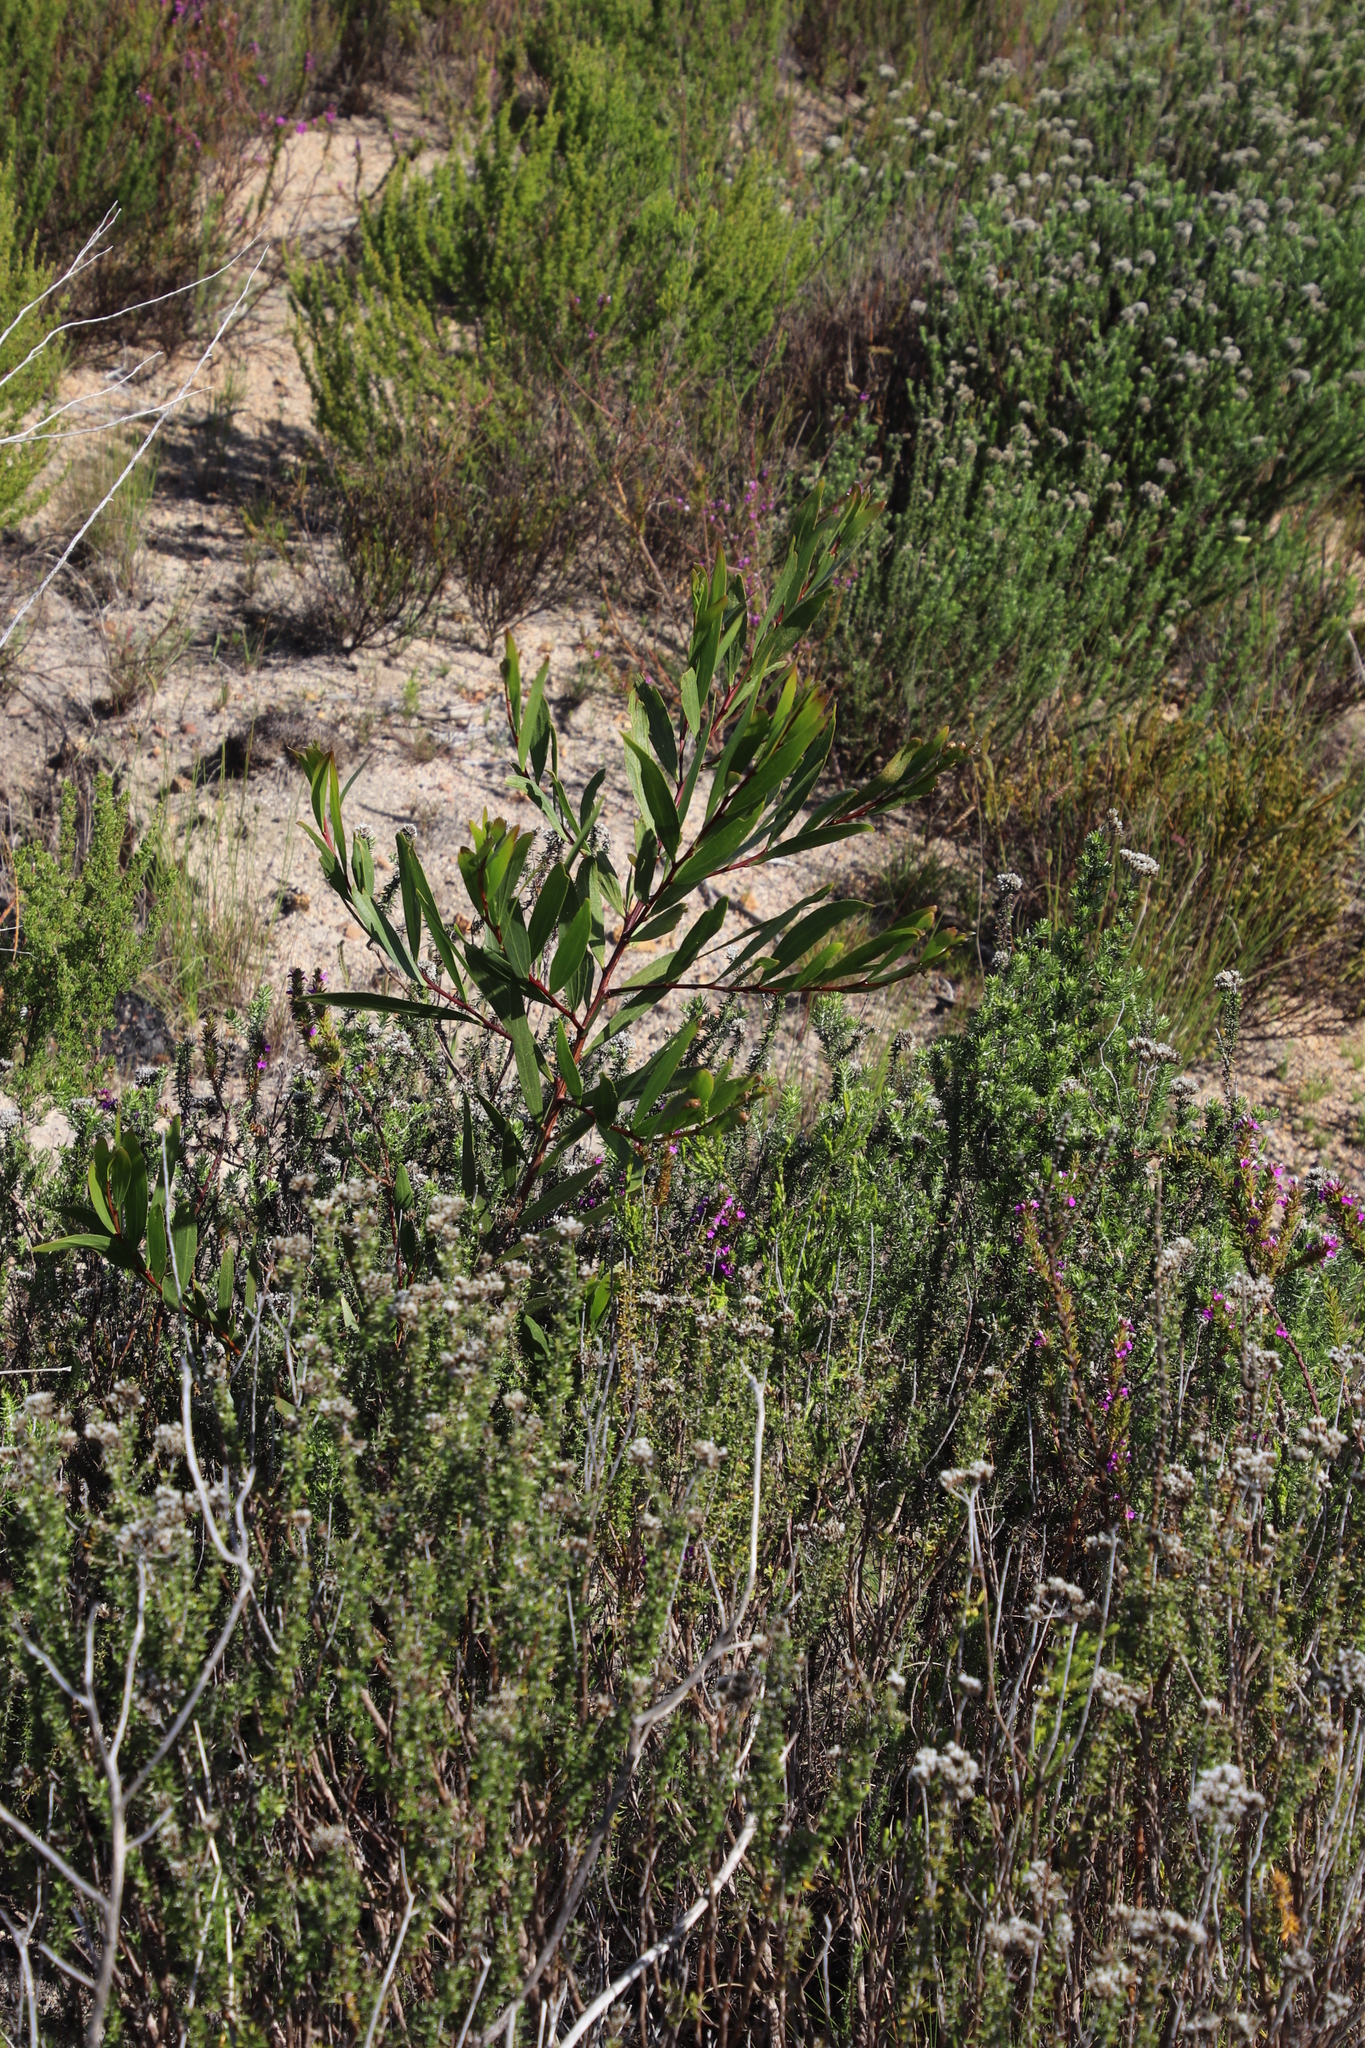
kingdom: Plantae
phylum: Tracheophyta
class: Magnoliopsida
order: Fabales
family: Fabaceae
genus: Acacia
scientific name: Acacia cyclops
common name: Coastal wattle
